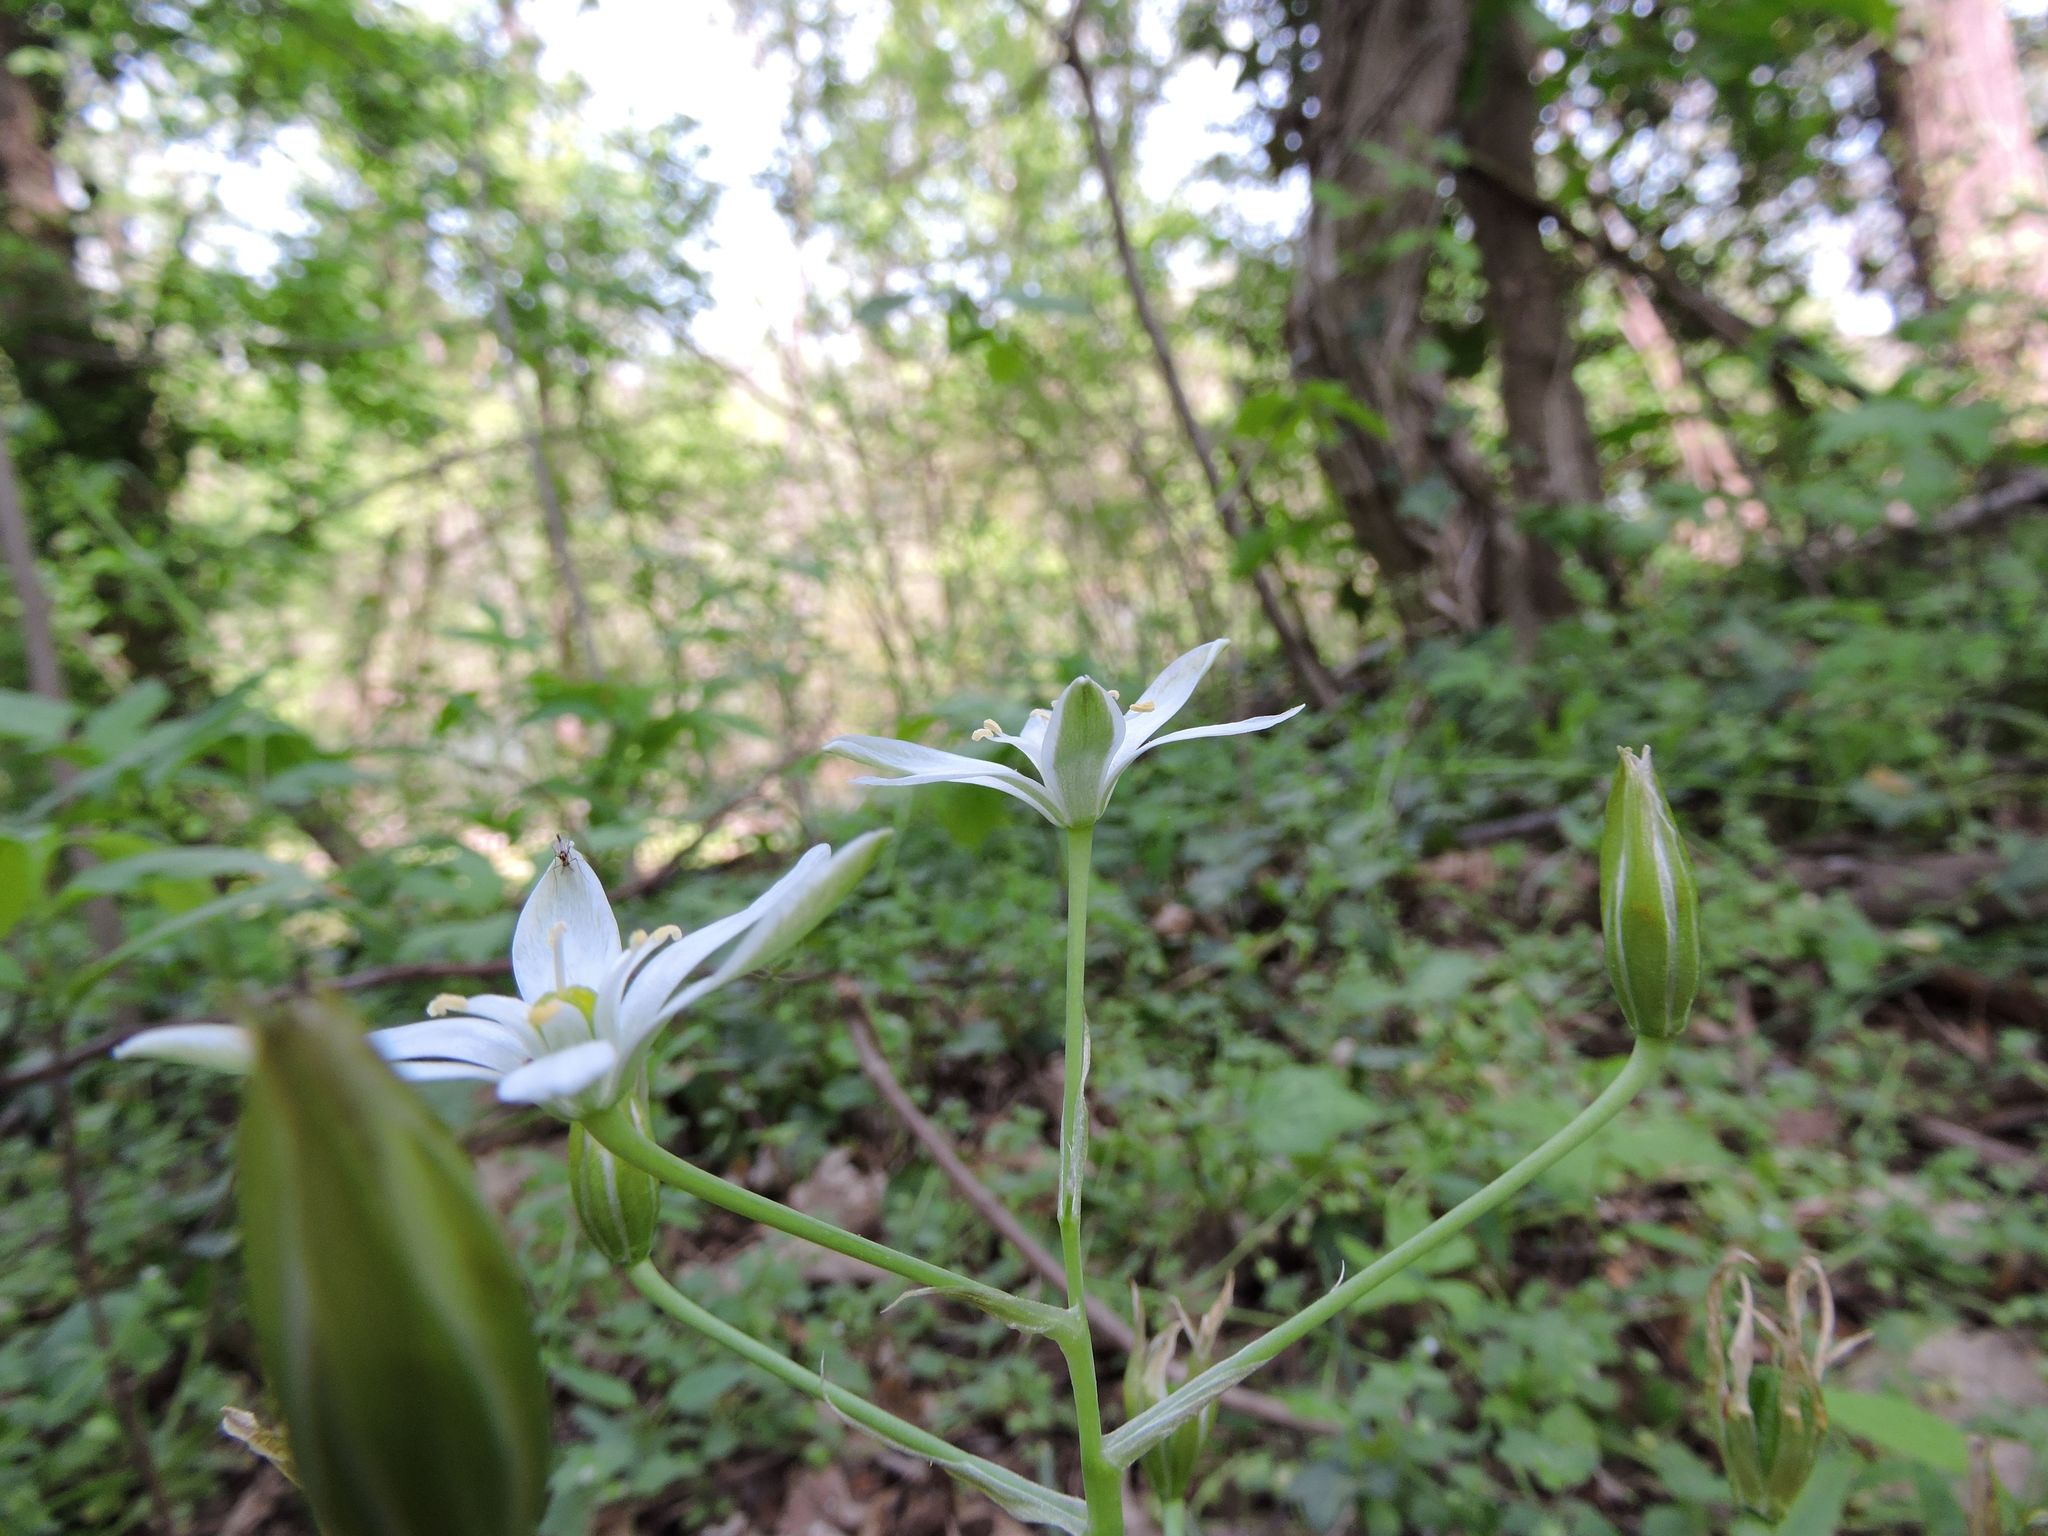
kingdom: Plantae
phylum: Tracheophyta
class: Liliopsida
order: Asparagales
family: Asparagaceae
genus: Ornithogalum
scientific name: Ornithogalum umbellatum
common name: Garden star-of-bethlehem
